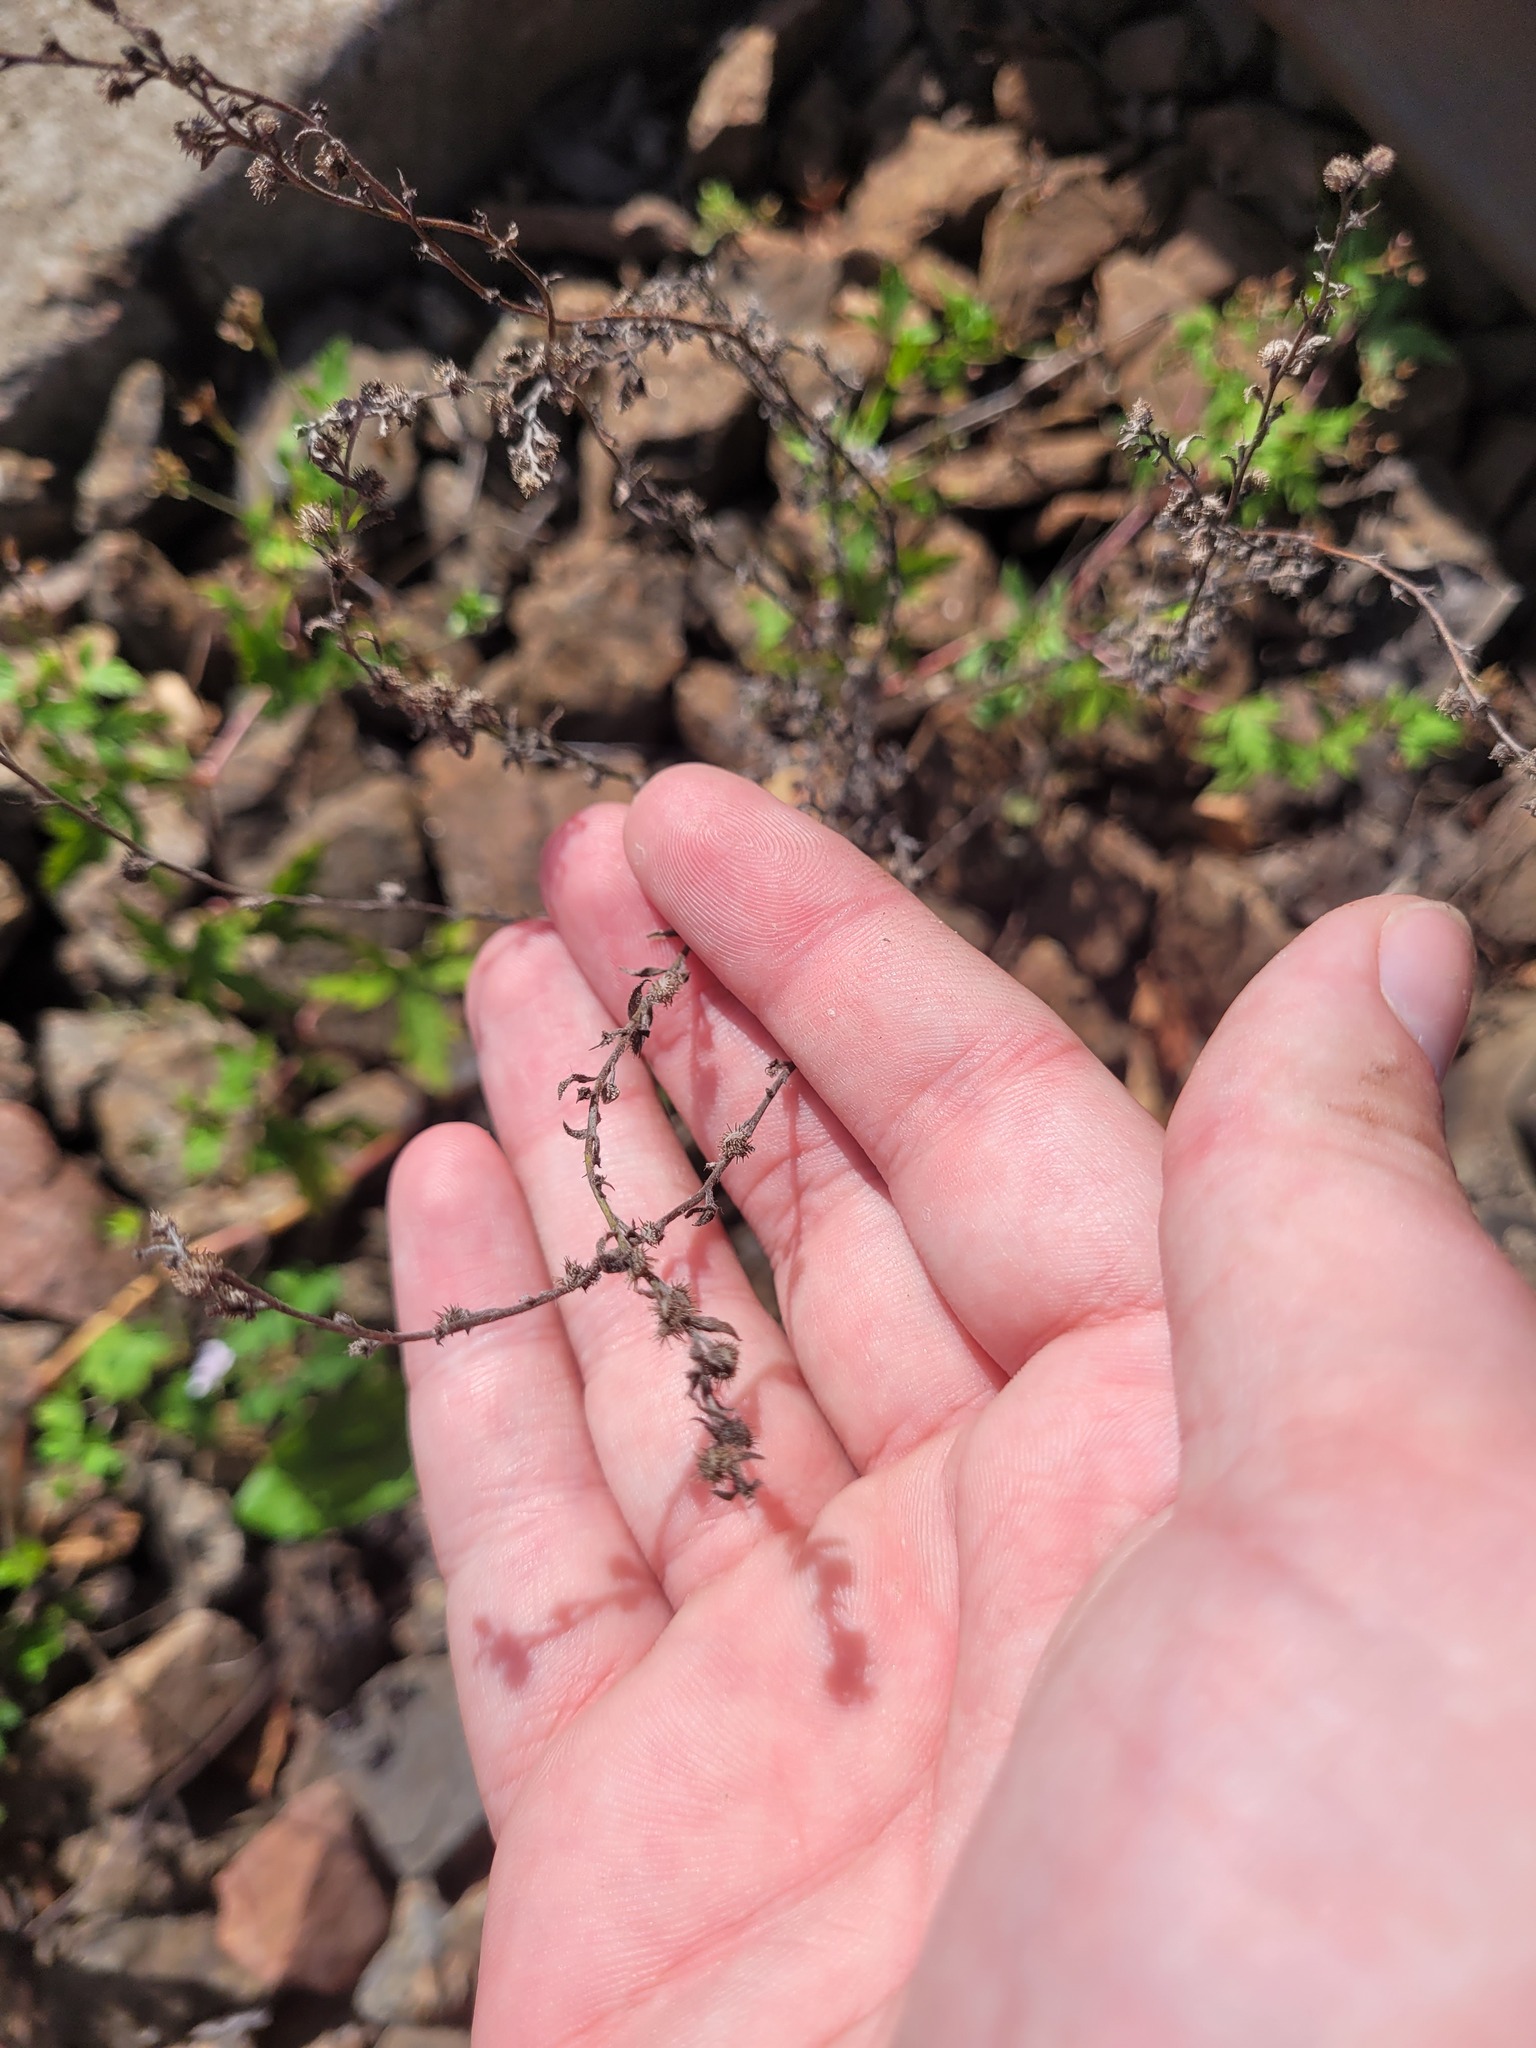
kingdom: Plantae
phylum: Tracheophyta
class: Magnoliopsida
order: Boraginales
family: Boraginaceae
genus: Lappula
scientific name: Lappula squarrosa
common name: European stickseed
